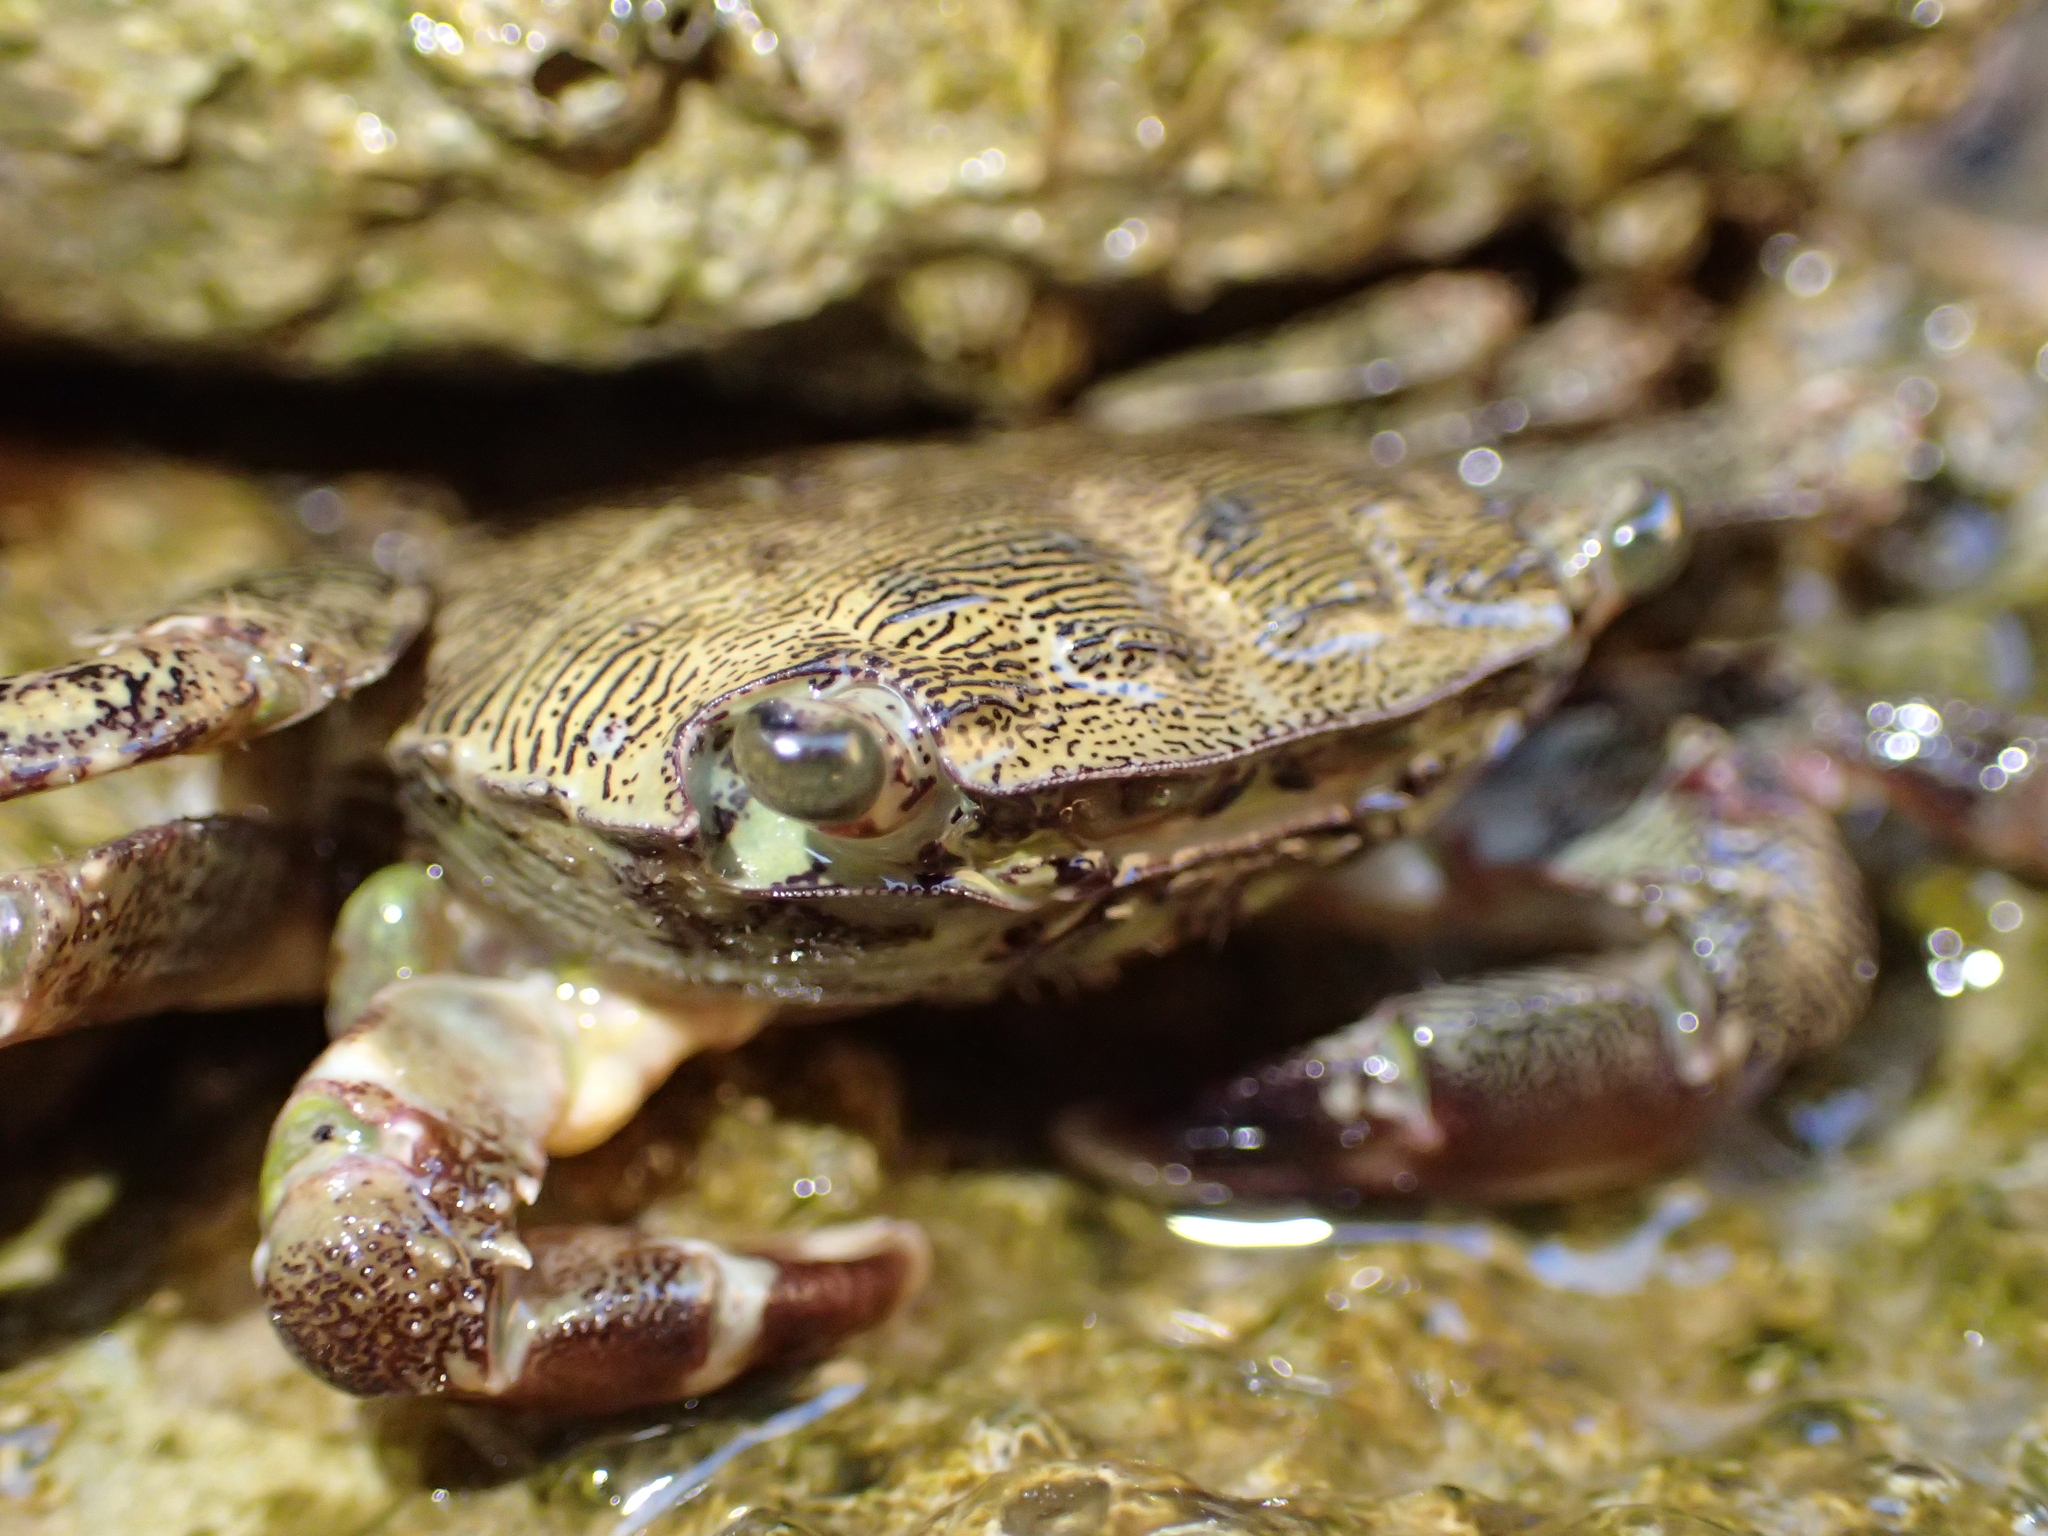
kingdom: Animalia
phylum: Arthropoda
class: Malacostraca
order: Decapoda
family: Grapsidae
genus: Pachygrapsus
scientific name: Pachygrapsus marmoratus
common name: Marbled rock crab
